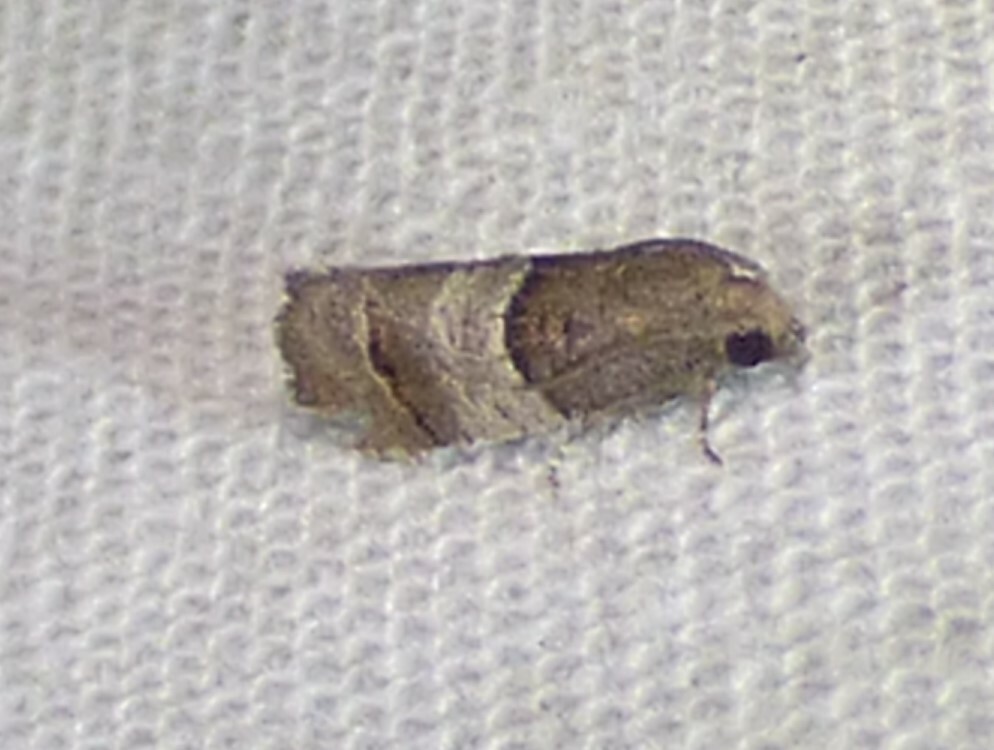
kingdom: Animalia
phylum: Arthropoda
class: Insecta
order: Lepidoptera
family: Tortricidae
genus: Larisa
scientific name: Larisa subsolana
